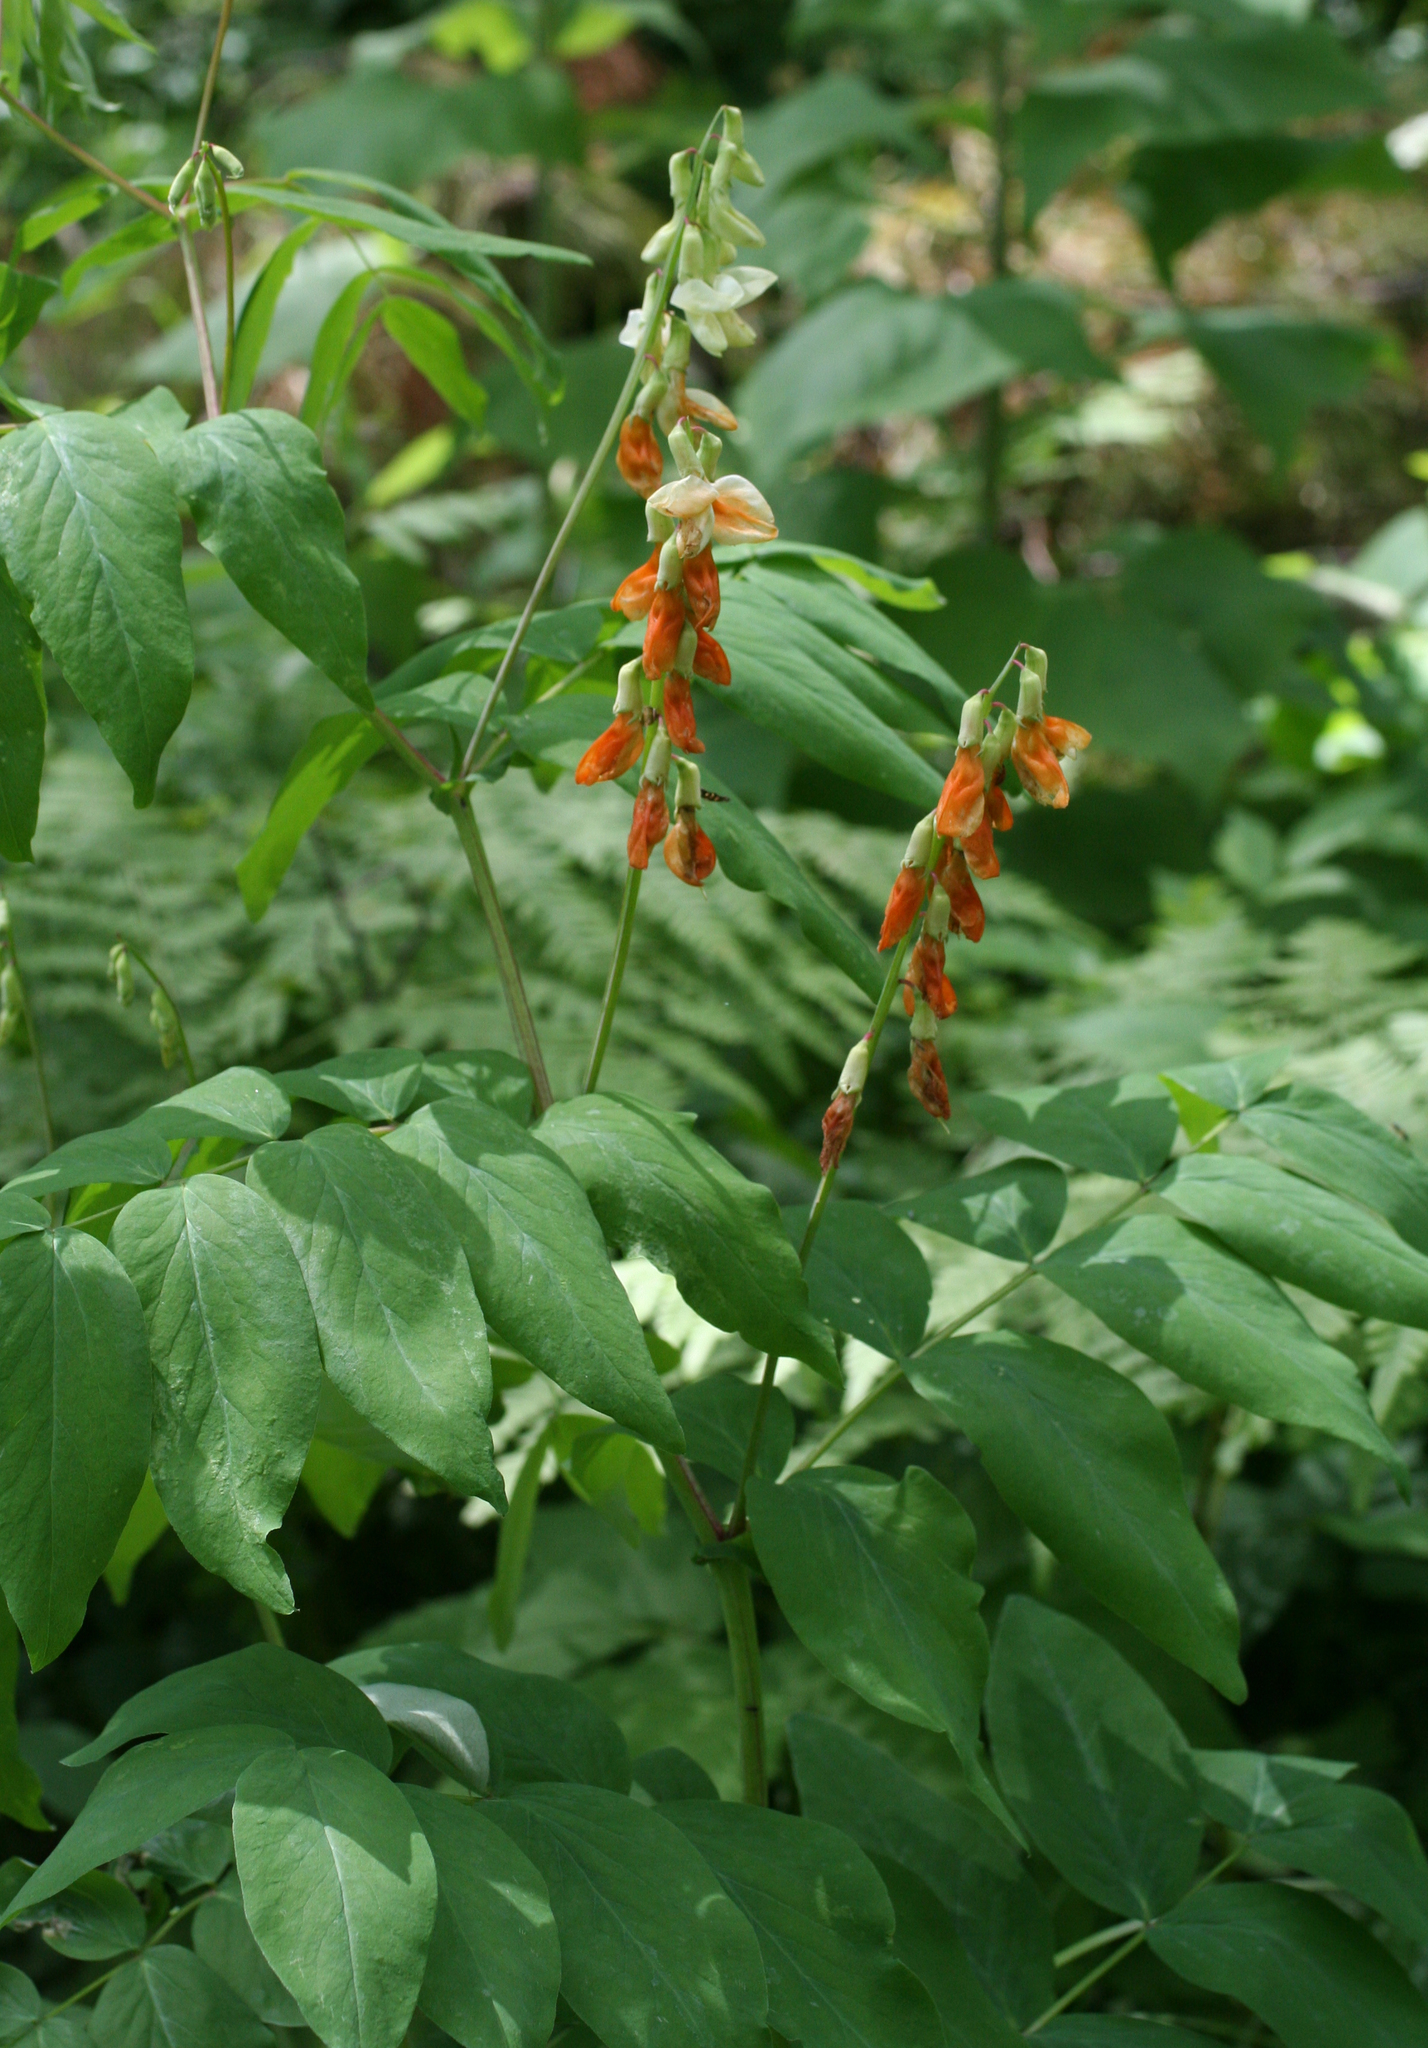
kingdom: Plantae
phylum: Tracheophyta
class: Magnoliopsida
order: Fabales
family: Fabaceae
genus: Lathyrus
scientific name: Lathyrus gmelinii
